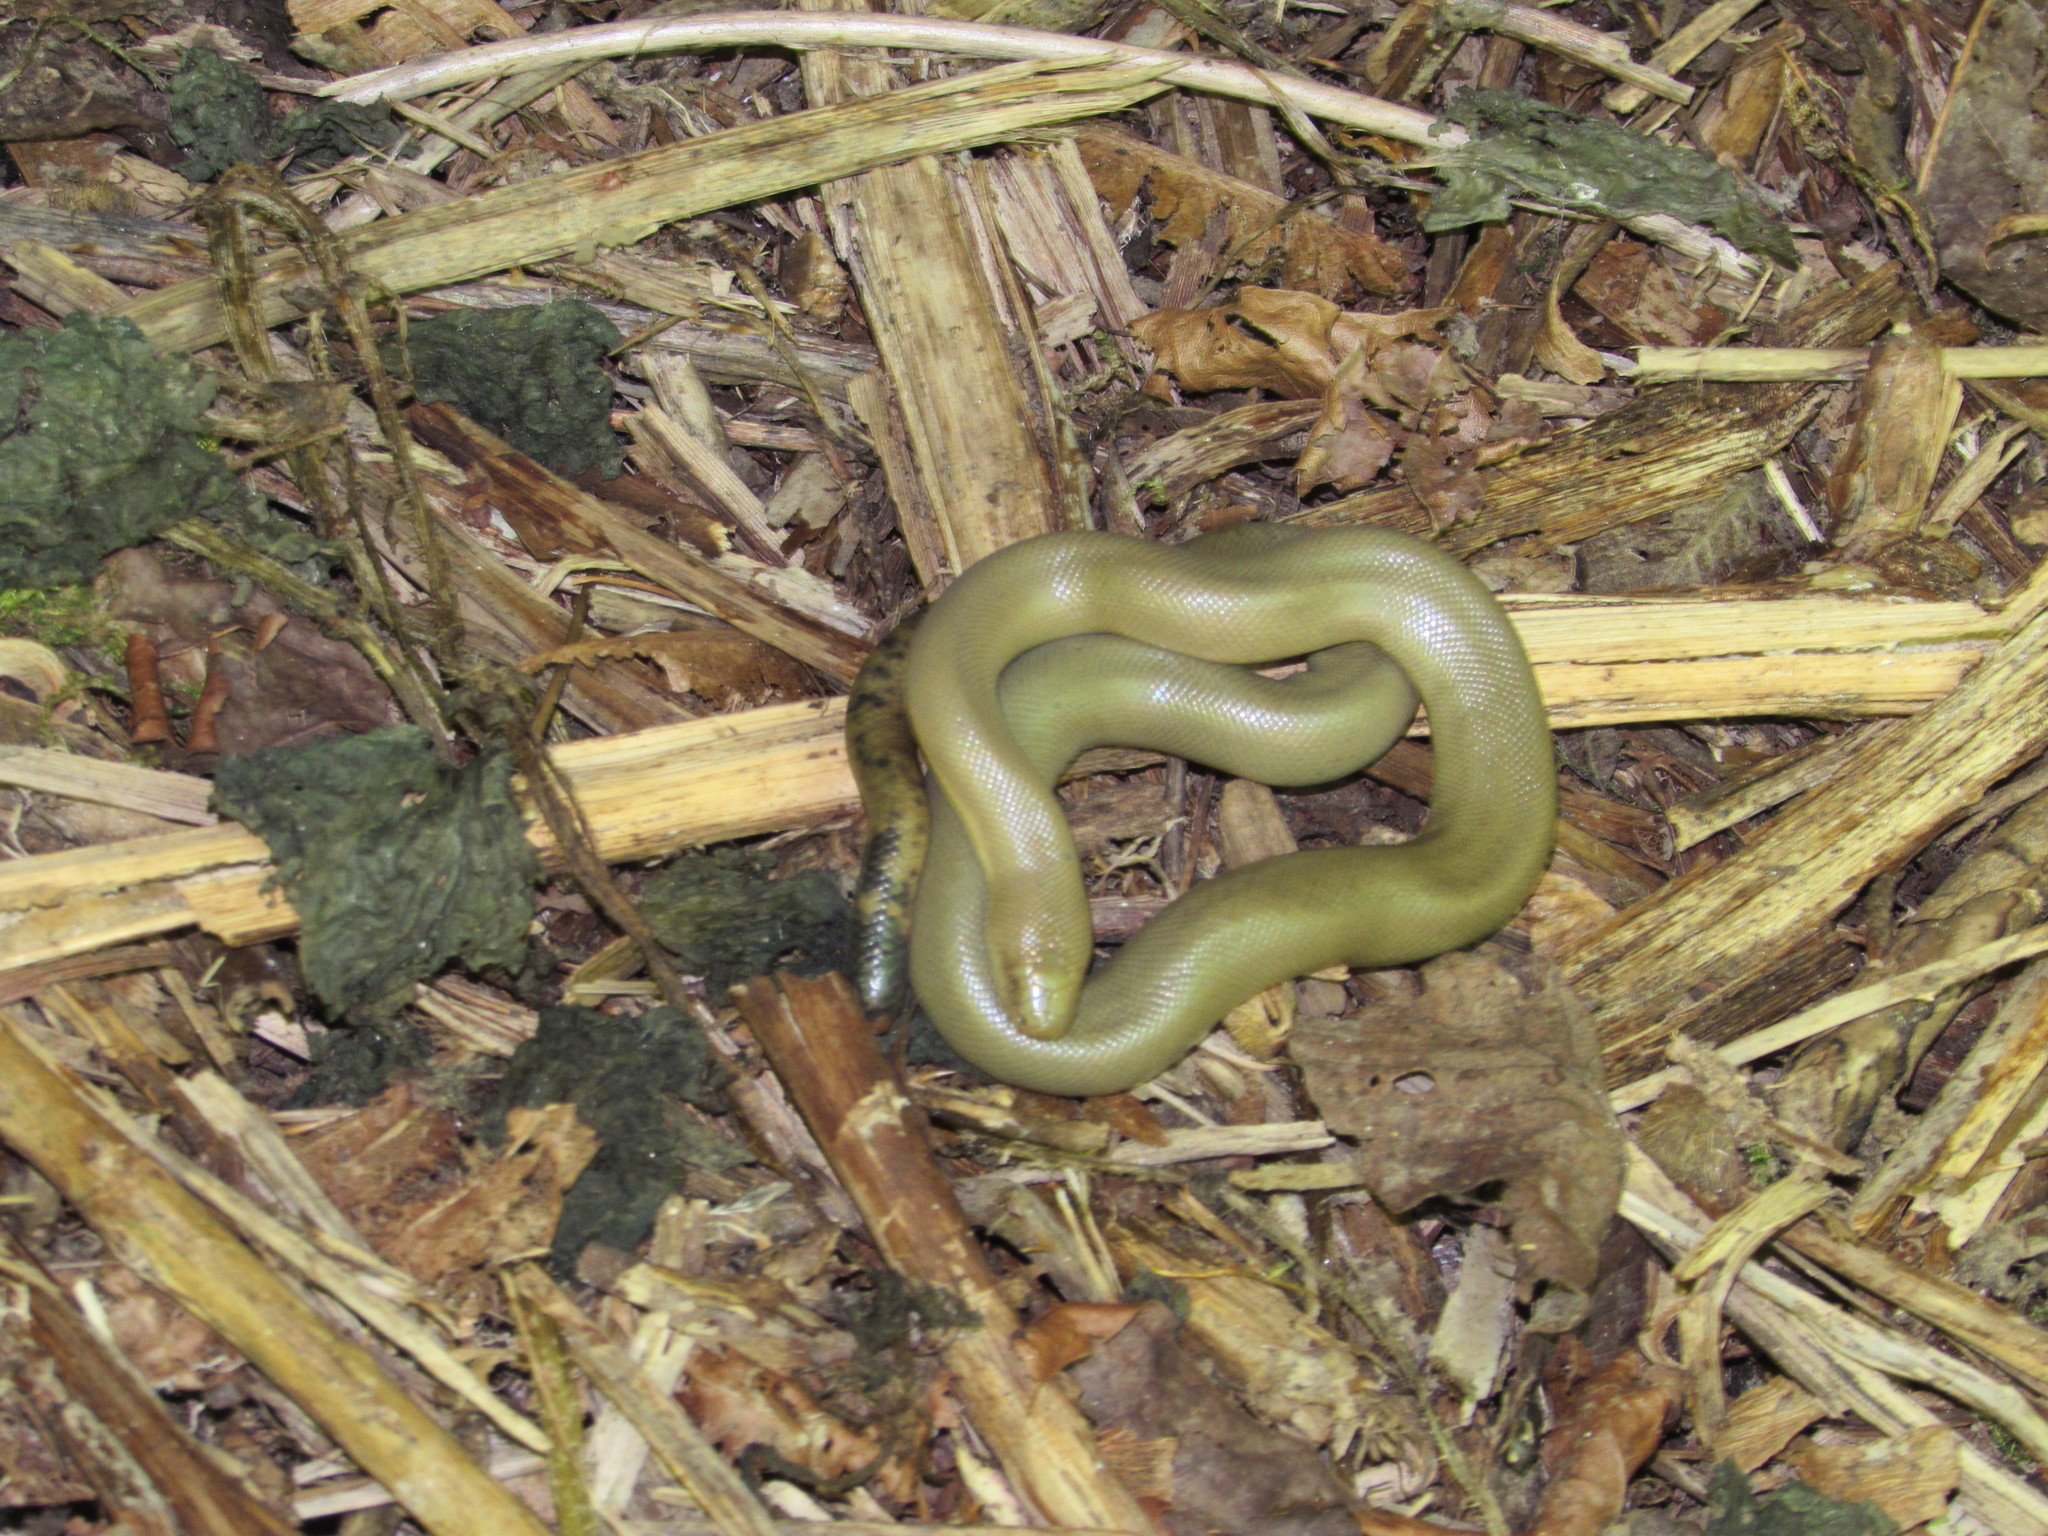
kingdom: Animalia
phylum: Chordata
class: Squamata
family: Boidae
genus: Charina
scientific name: Charina bottae
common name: Northern rubber boa
